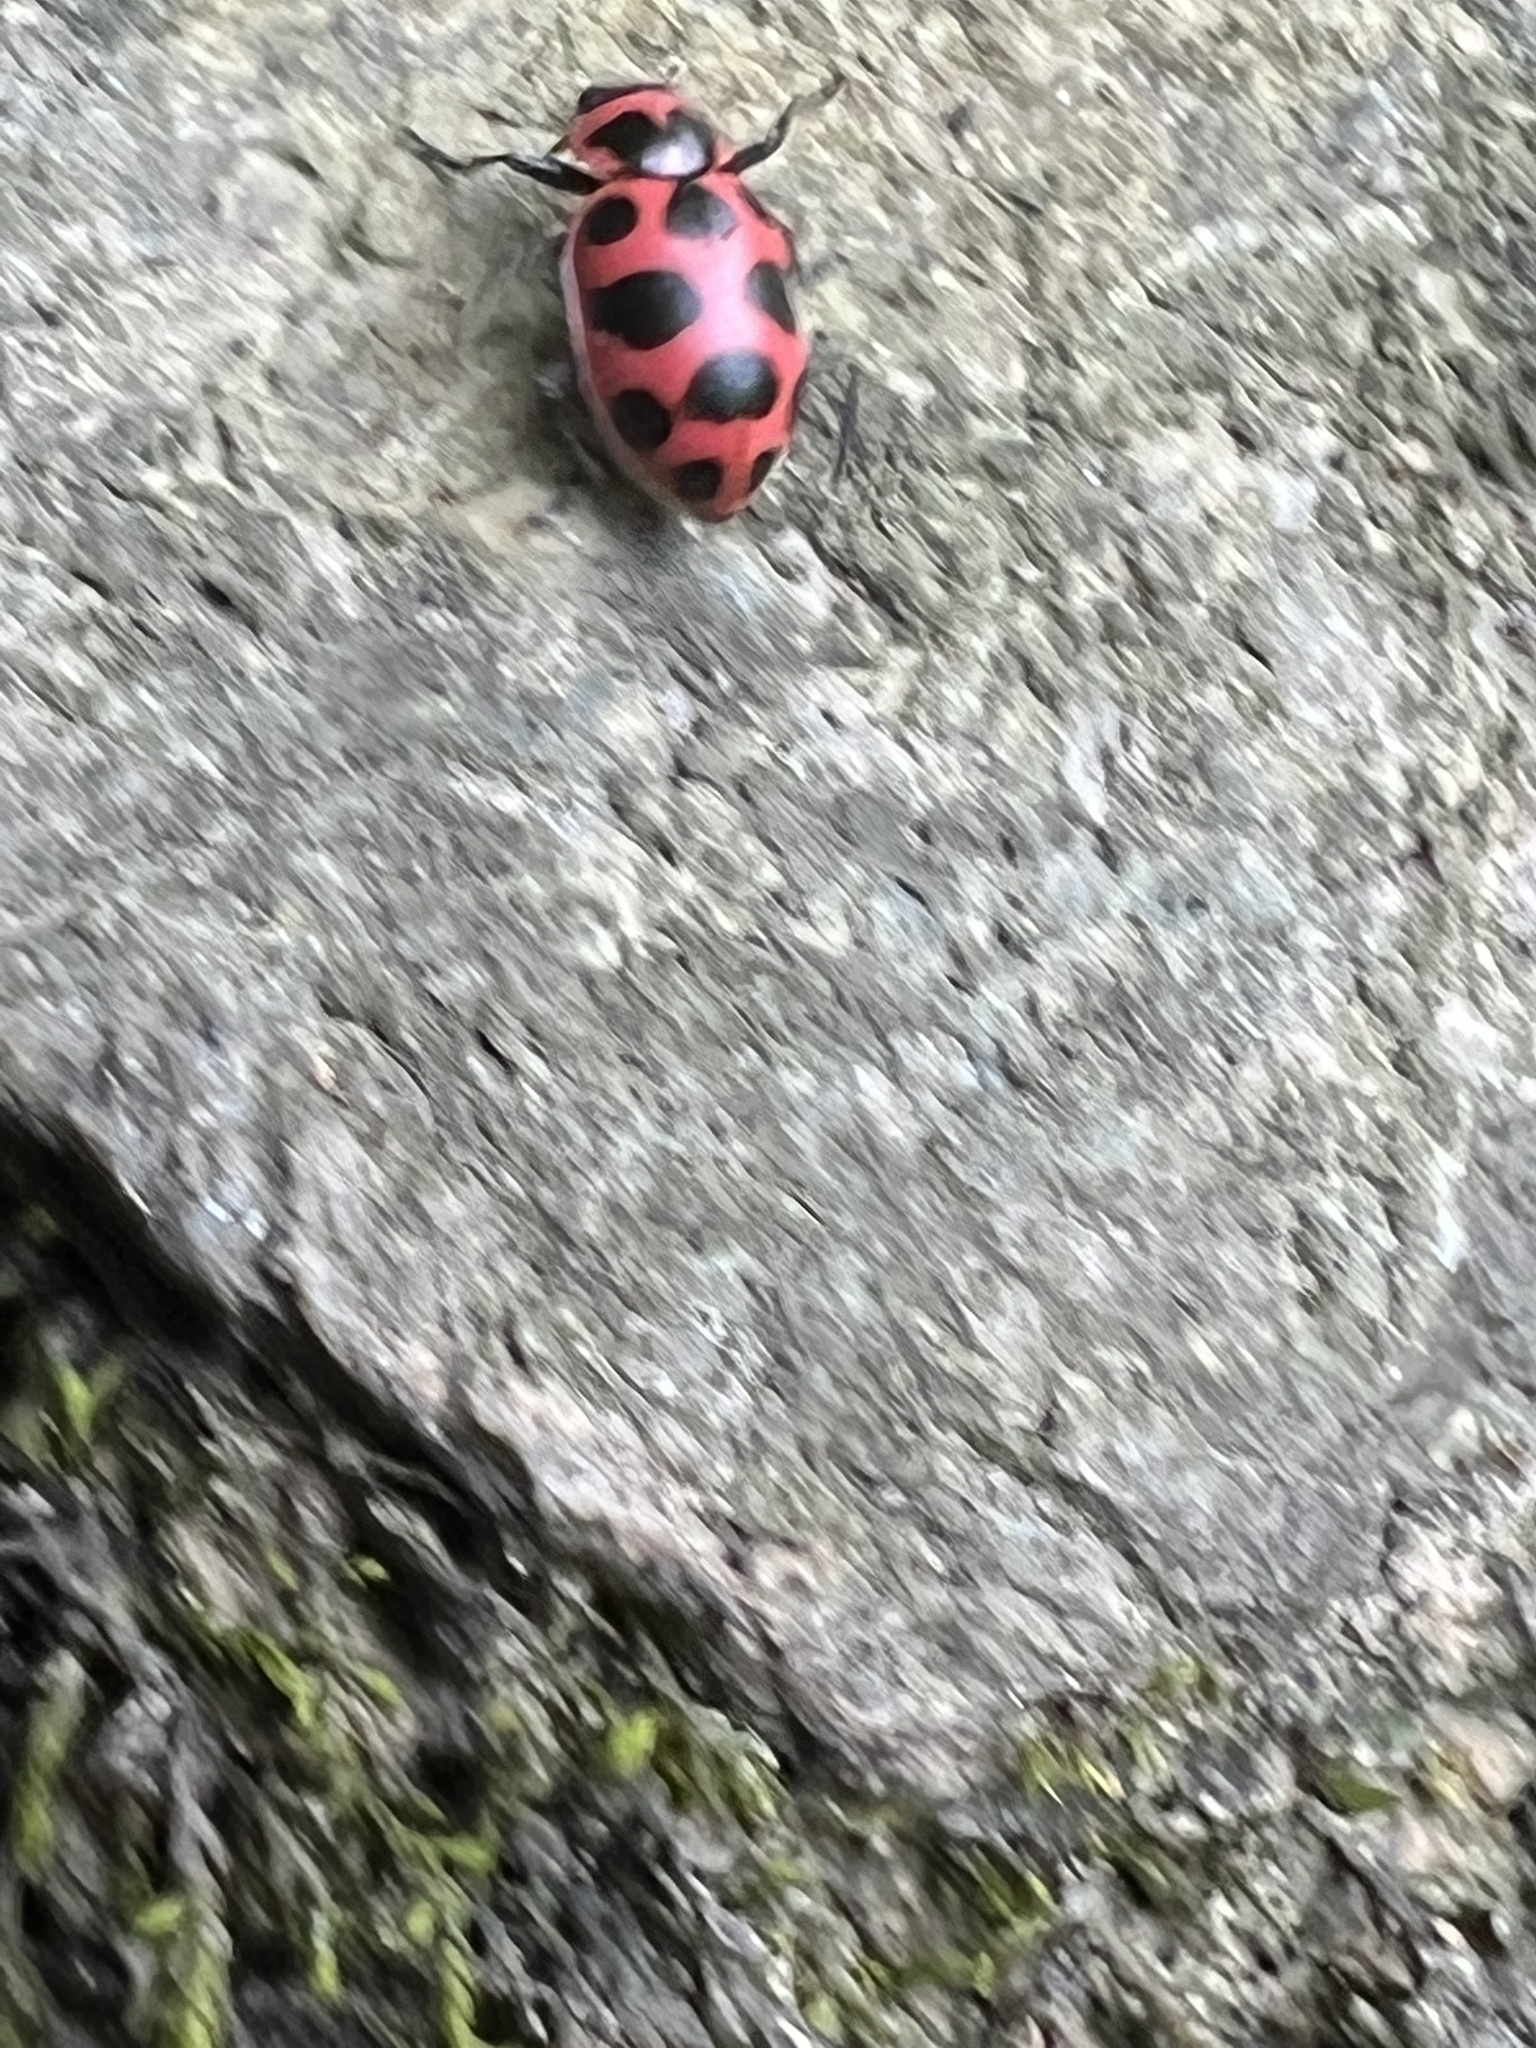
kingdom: Animalia
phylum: Arthropoda
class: Insecta
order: Coleoptera
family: Coccinellidae
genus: Coleomegilla
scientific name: Coleomegilla maculata
